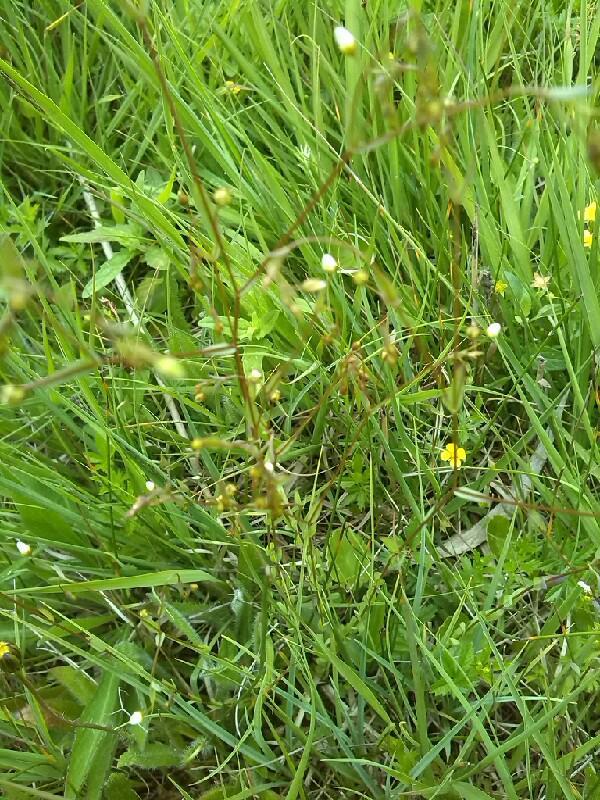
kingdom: Plantae
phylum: Tracheophyta
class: Magnoliopsida
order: Malpighiales
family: Linaceae
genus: Linum
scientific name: Linum catharticum
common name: Fairy flax
